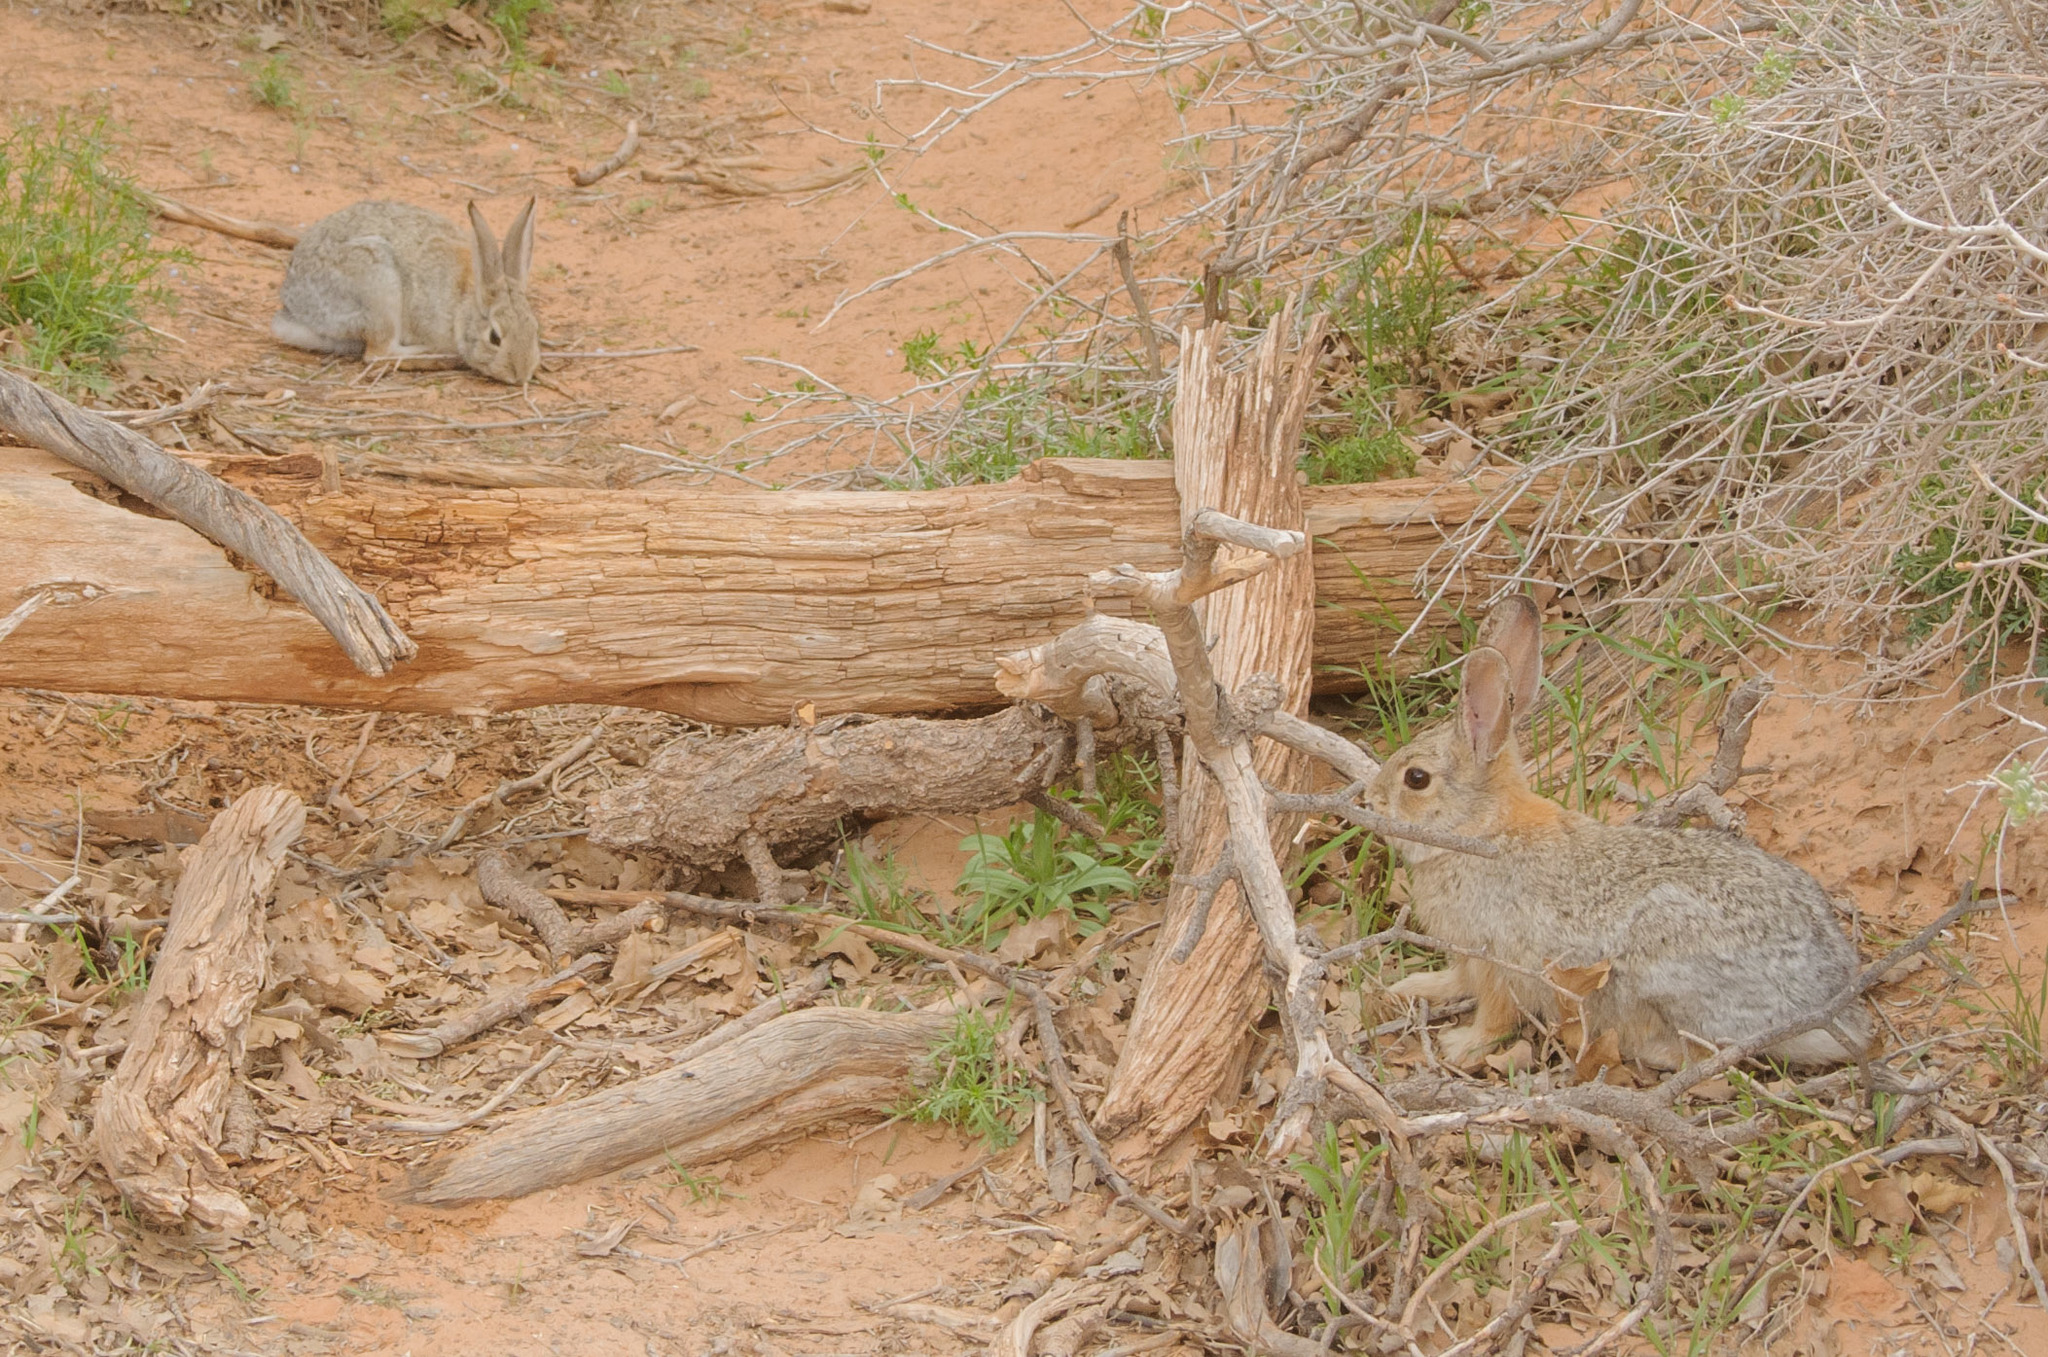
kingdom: Animalia
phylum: Chordata
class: Mammalia
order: Lagomorpha
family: Leporidae
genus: Sylvilagus
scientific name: Sylvilagus audubonii
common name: Desert cottontail
